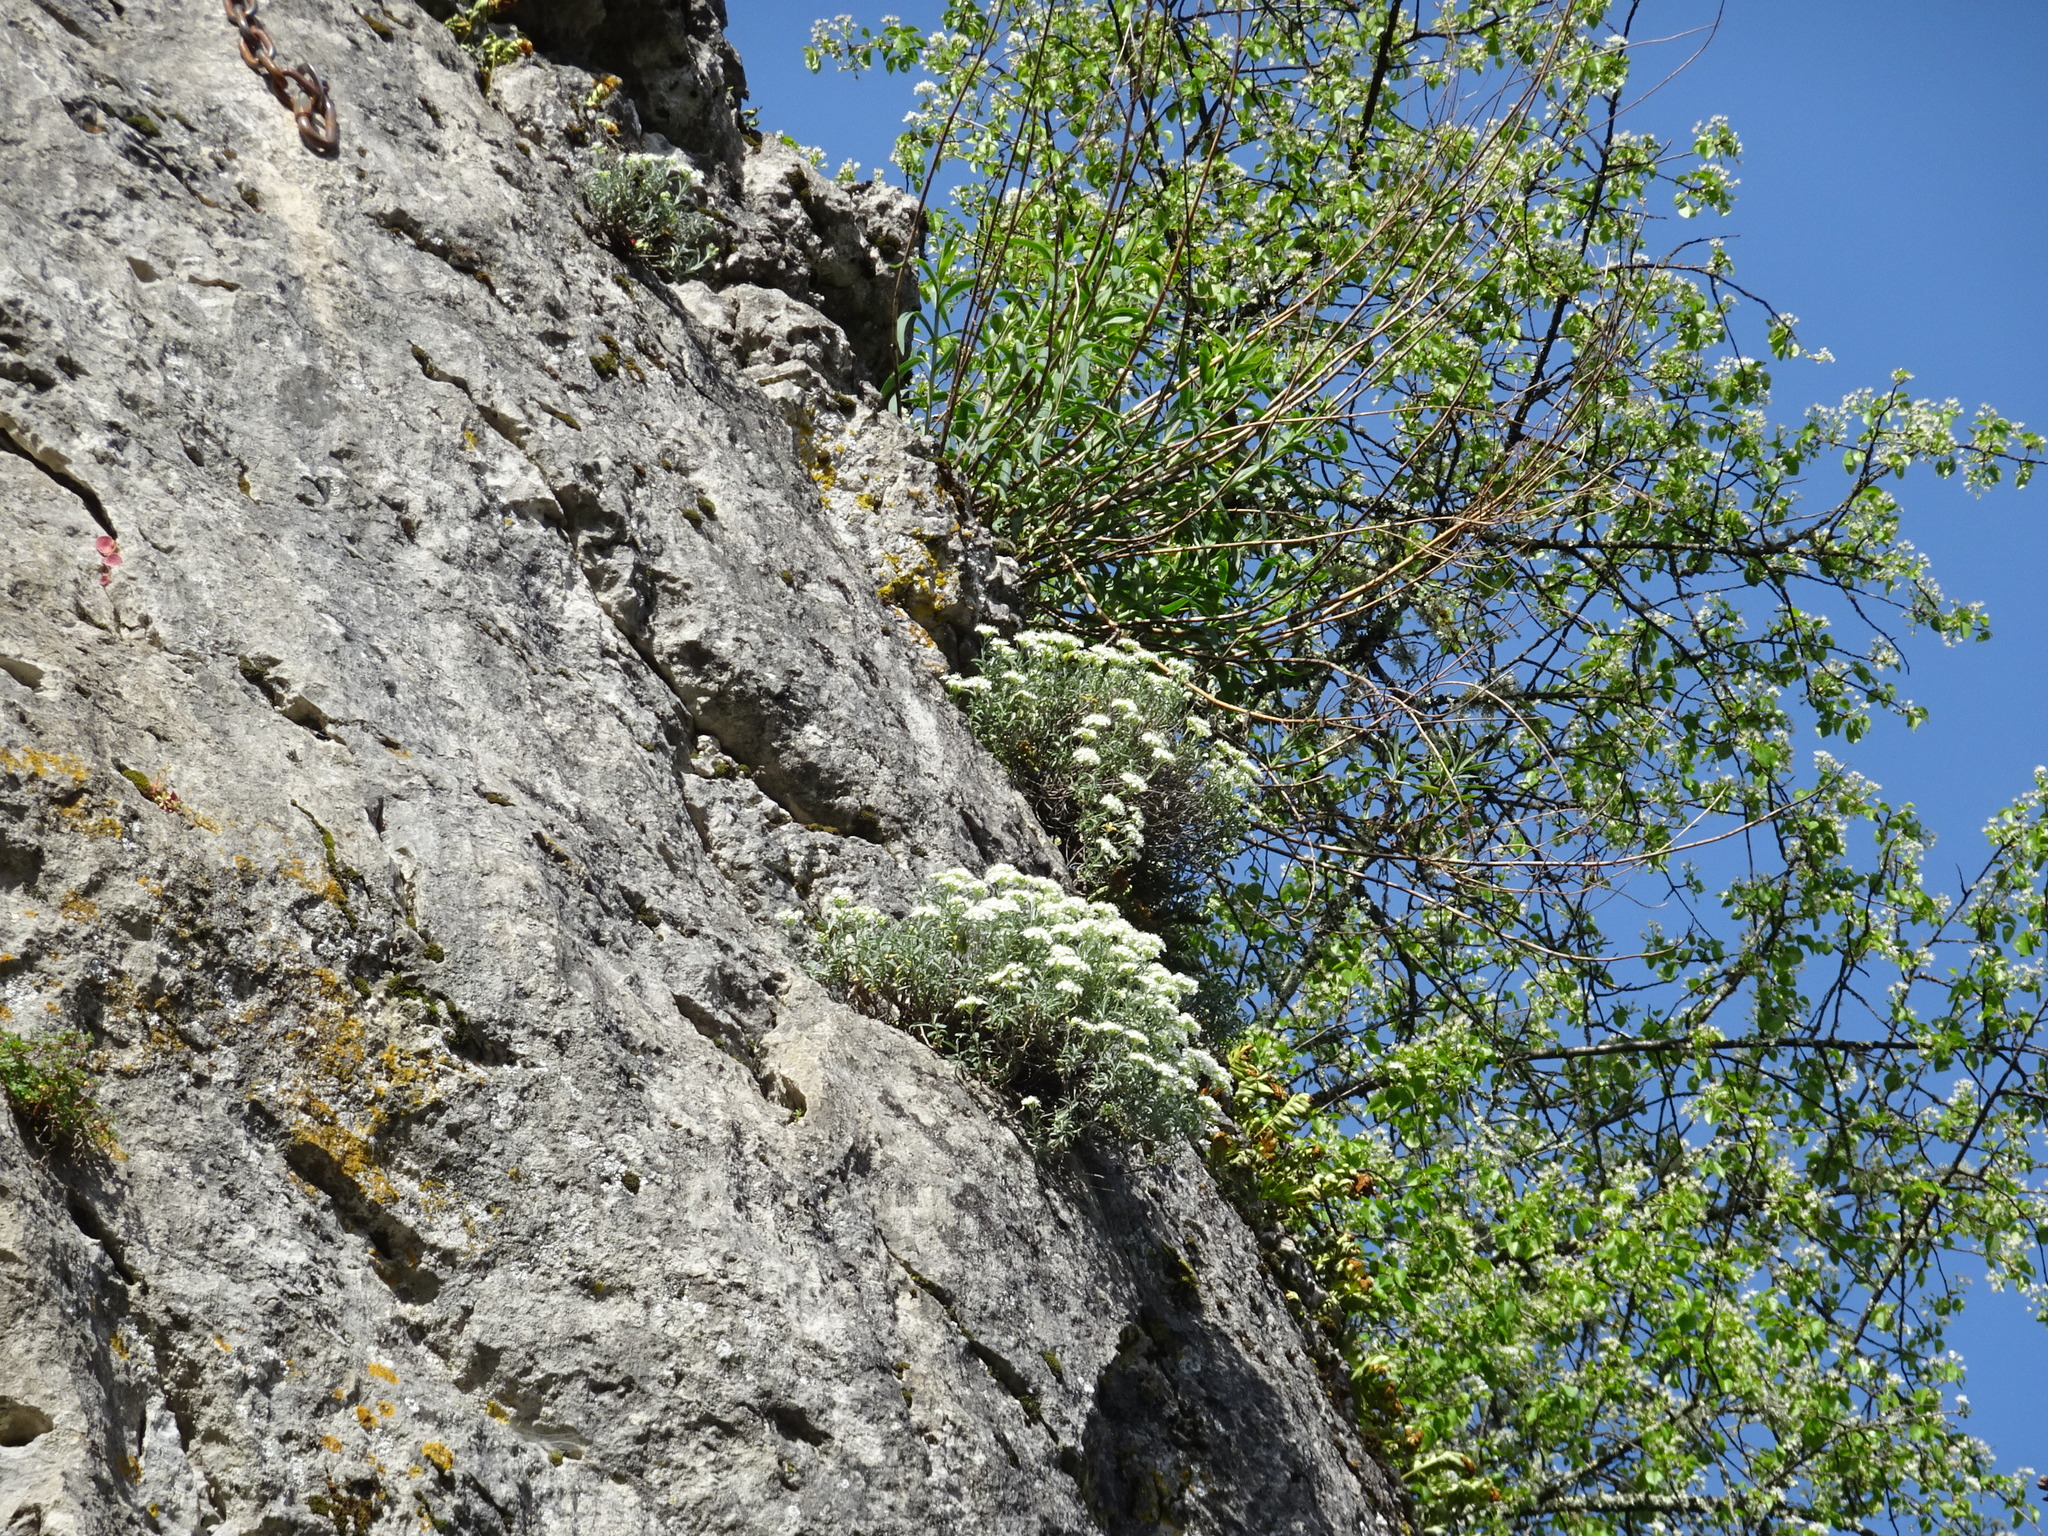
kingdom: Plantae
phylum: Tracheophyta
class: Magnoliopsida
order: Brassicales
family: Brassicaceae
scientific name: Brassicaceae
